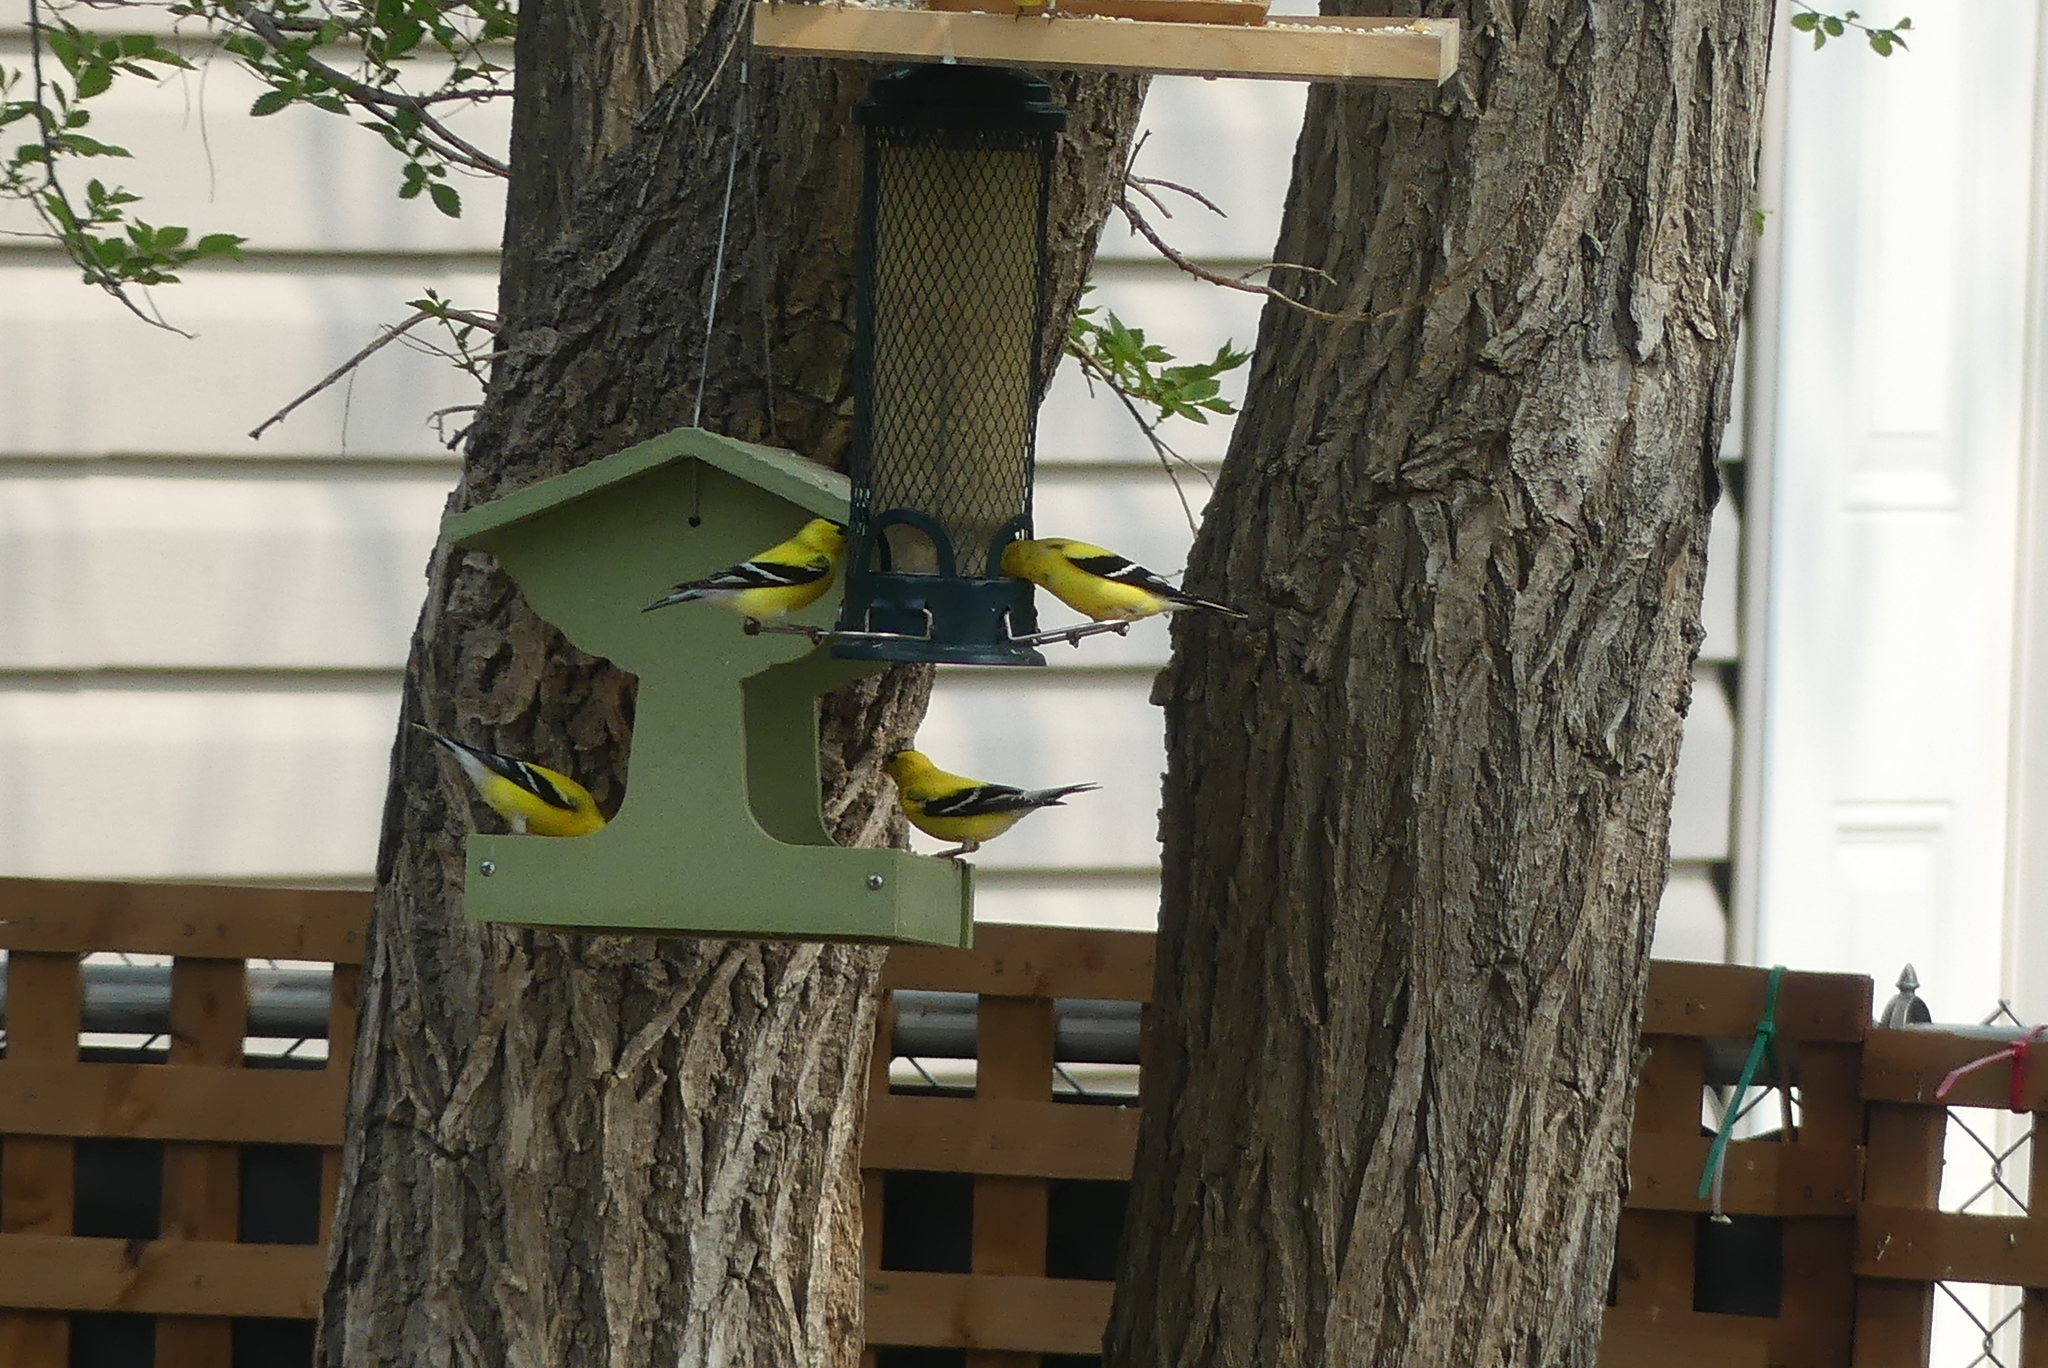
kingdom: Animalia
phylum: Chordata
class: Aves
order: Passeriformes
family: Fringillidae
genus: Spinus
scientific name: Spinus tristis
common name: American goldfinch
